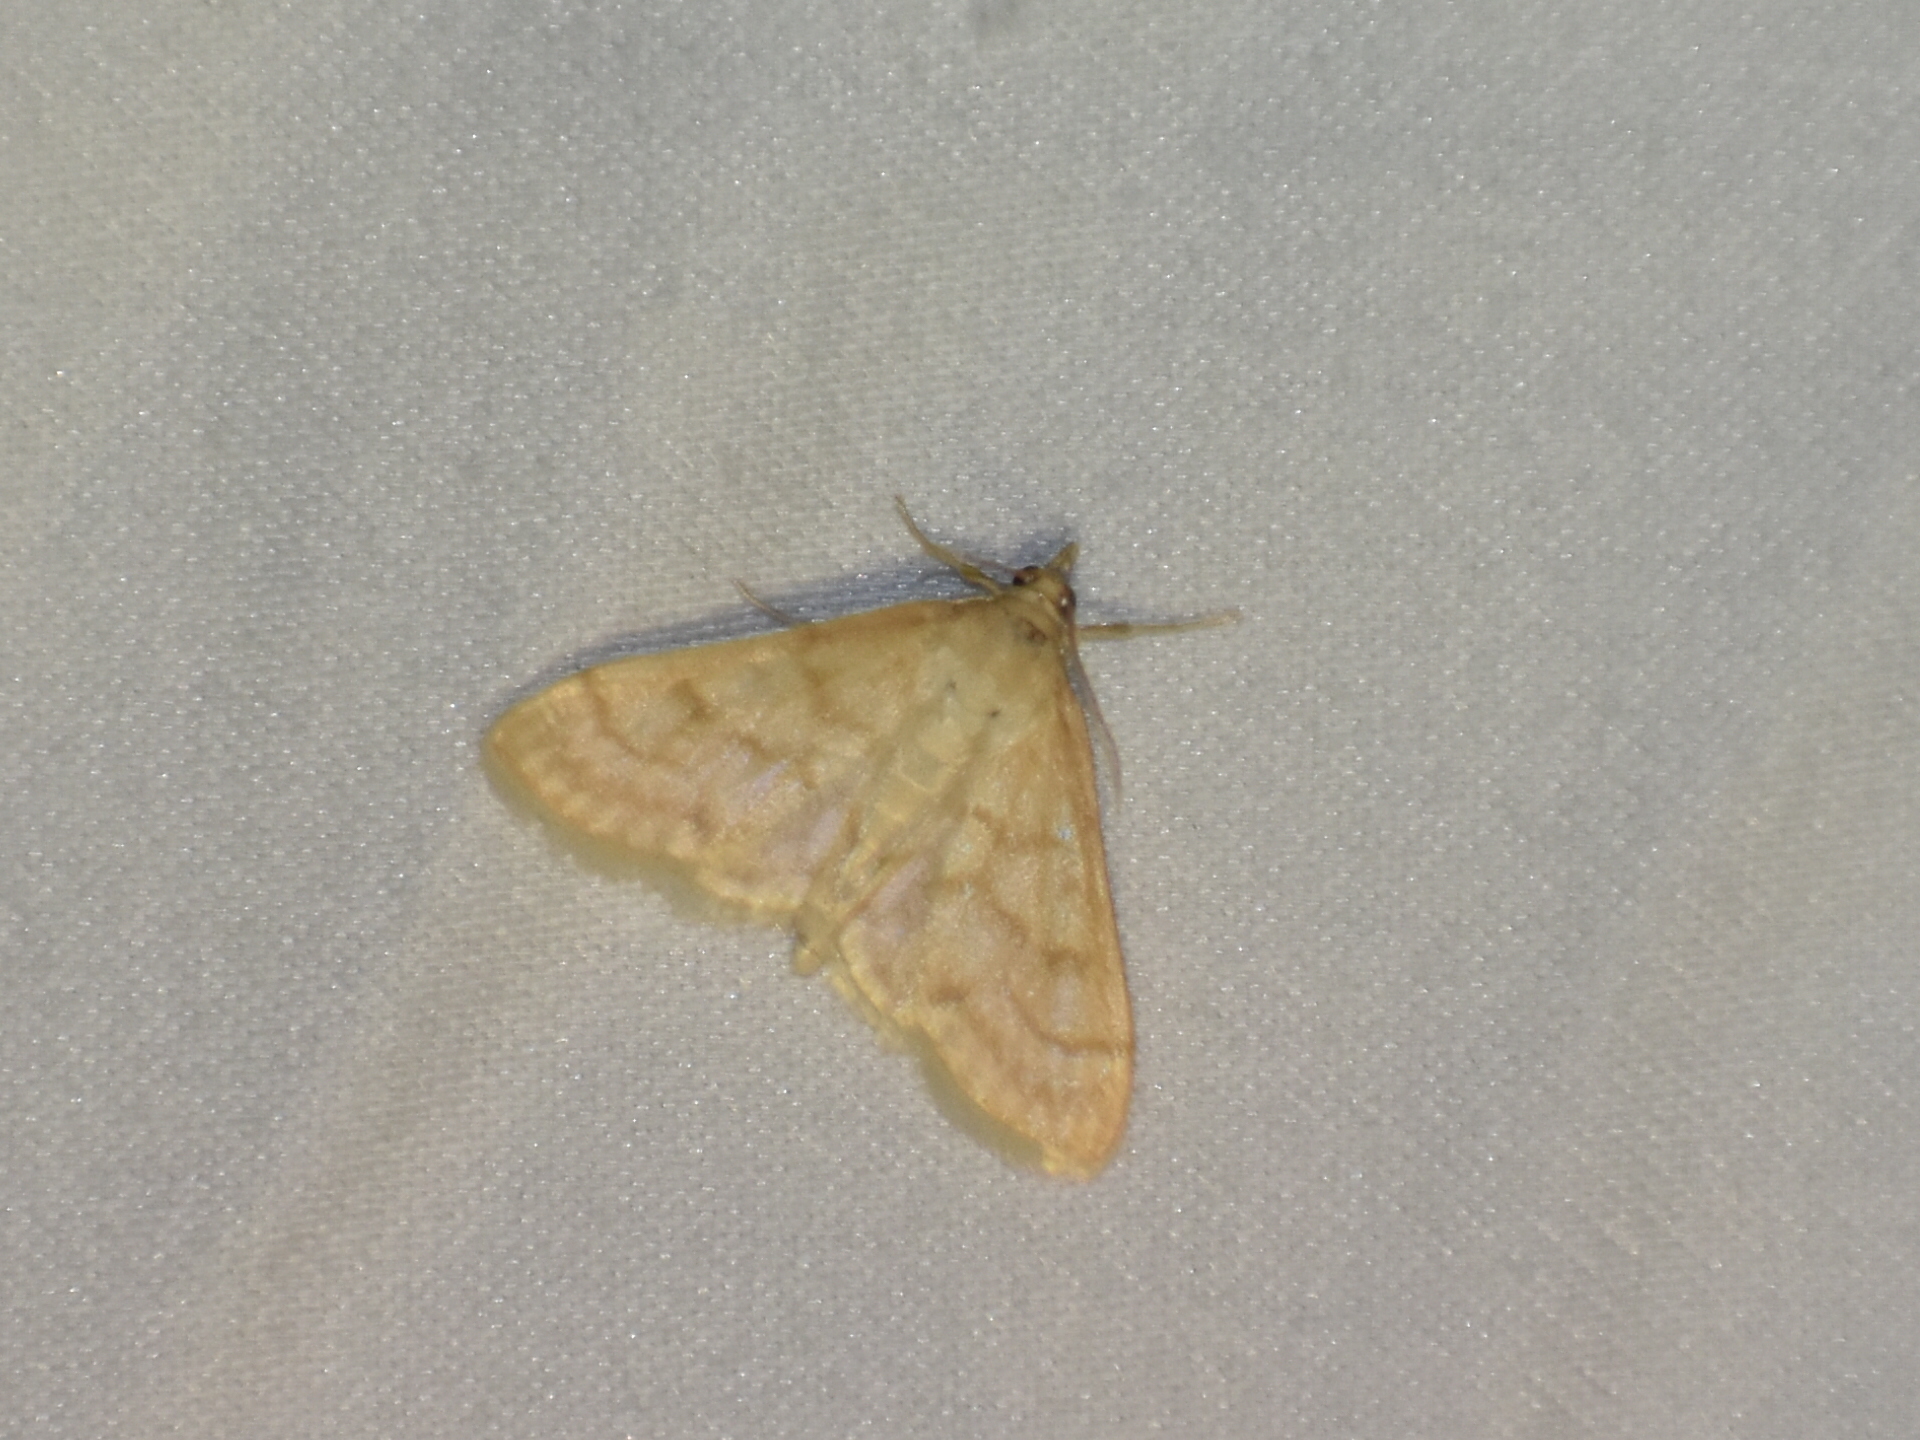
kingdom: Animalia
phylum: Arthropoda
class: Insecta
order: Lepidoptera
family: Crambidae
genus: Paracorsia
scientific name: Paracorsia repandalis
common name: Mullein moth
